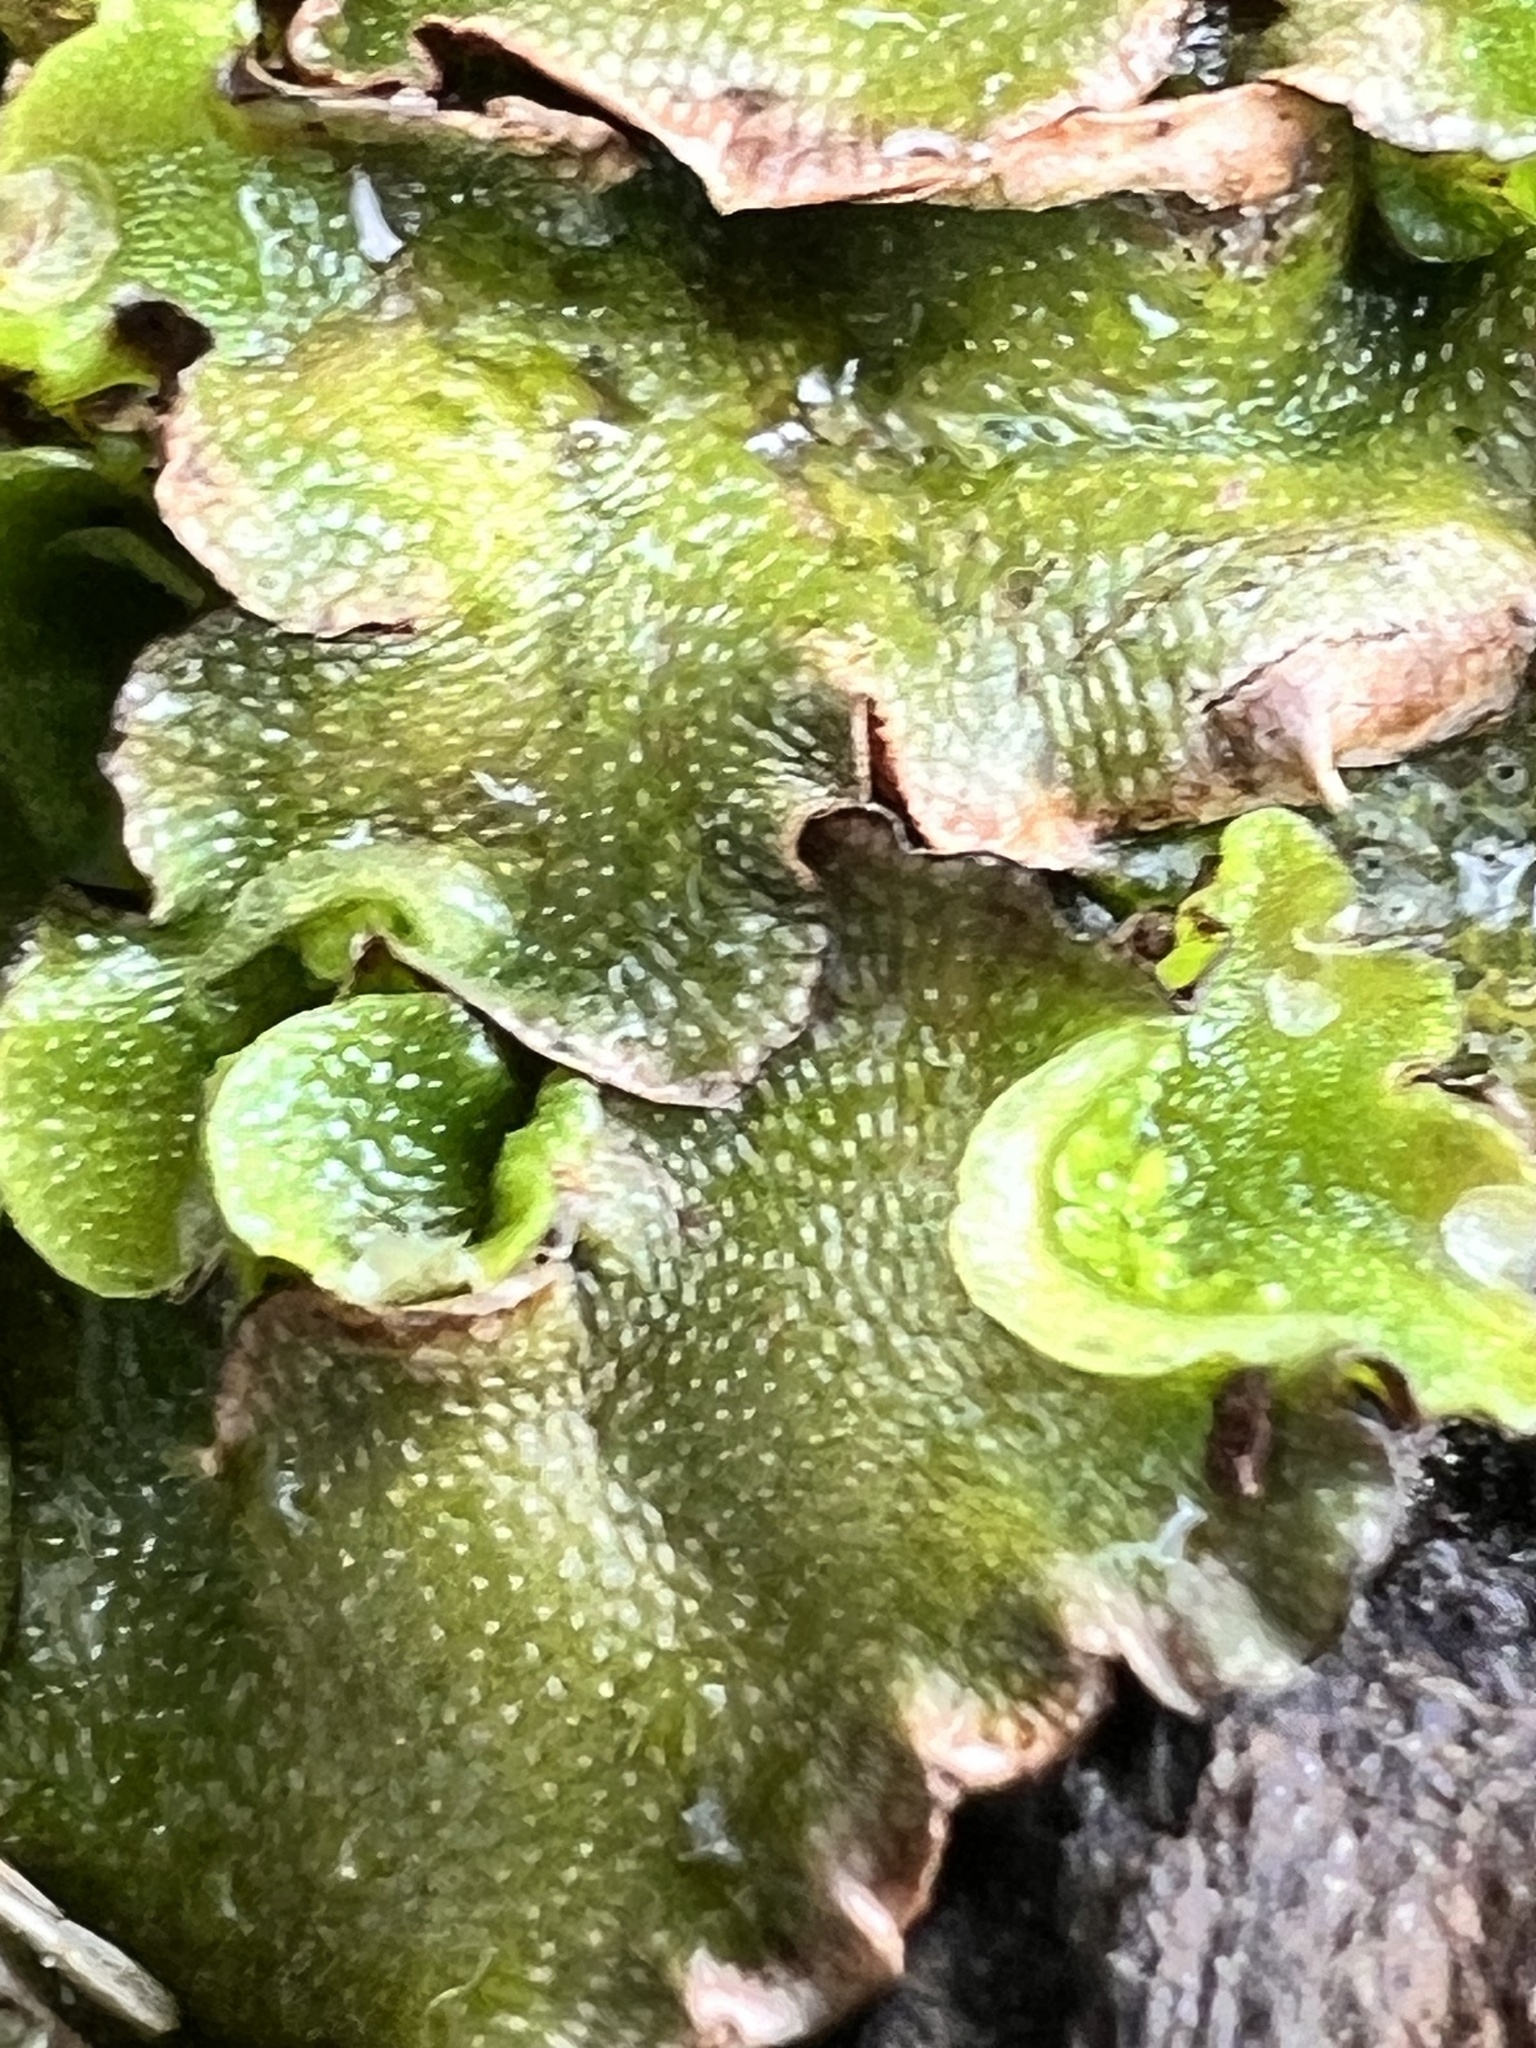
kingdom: Plantae
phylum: Marchantiophyta
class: Marchantiopsida
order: Lunulariales
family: Lunulariaceae
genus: Lunularia
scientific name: Lunularia cruciata
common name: Crescent-cup liverwort
